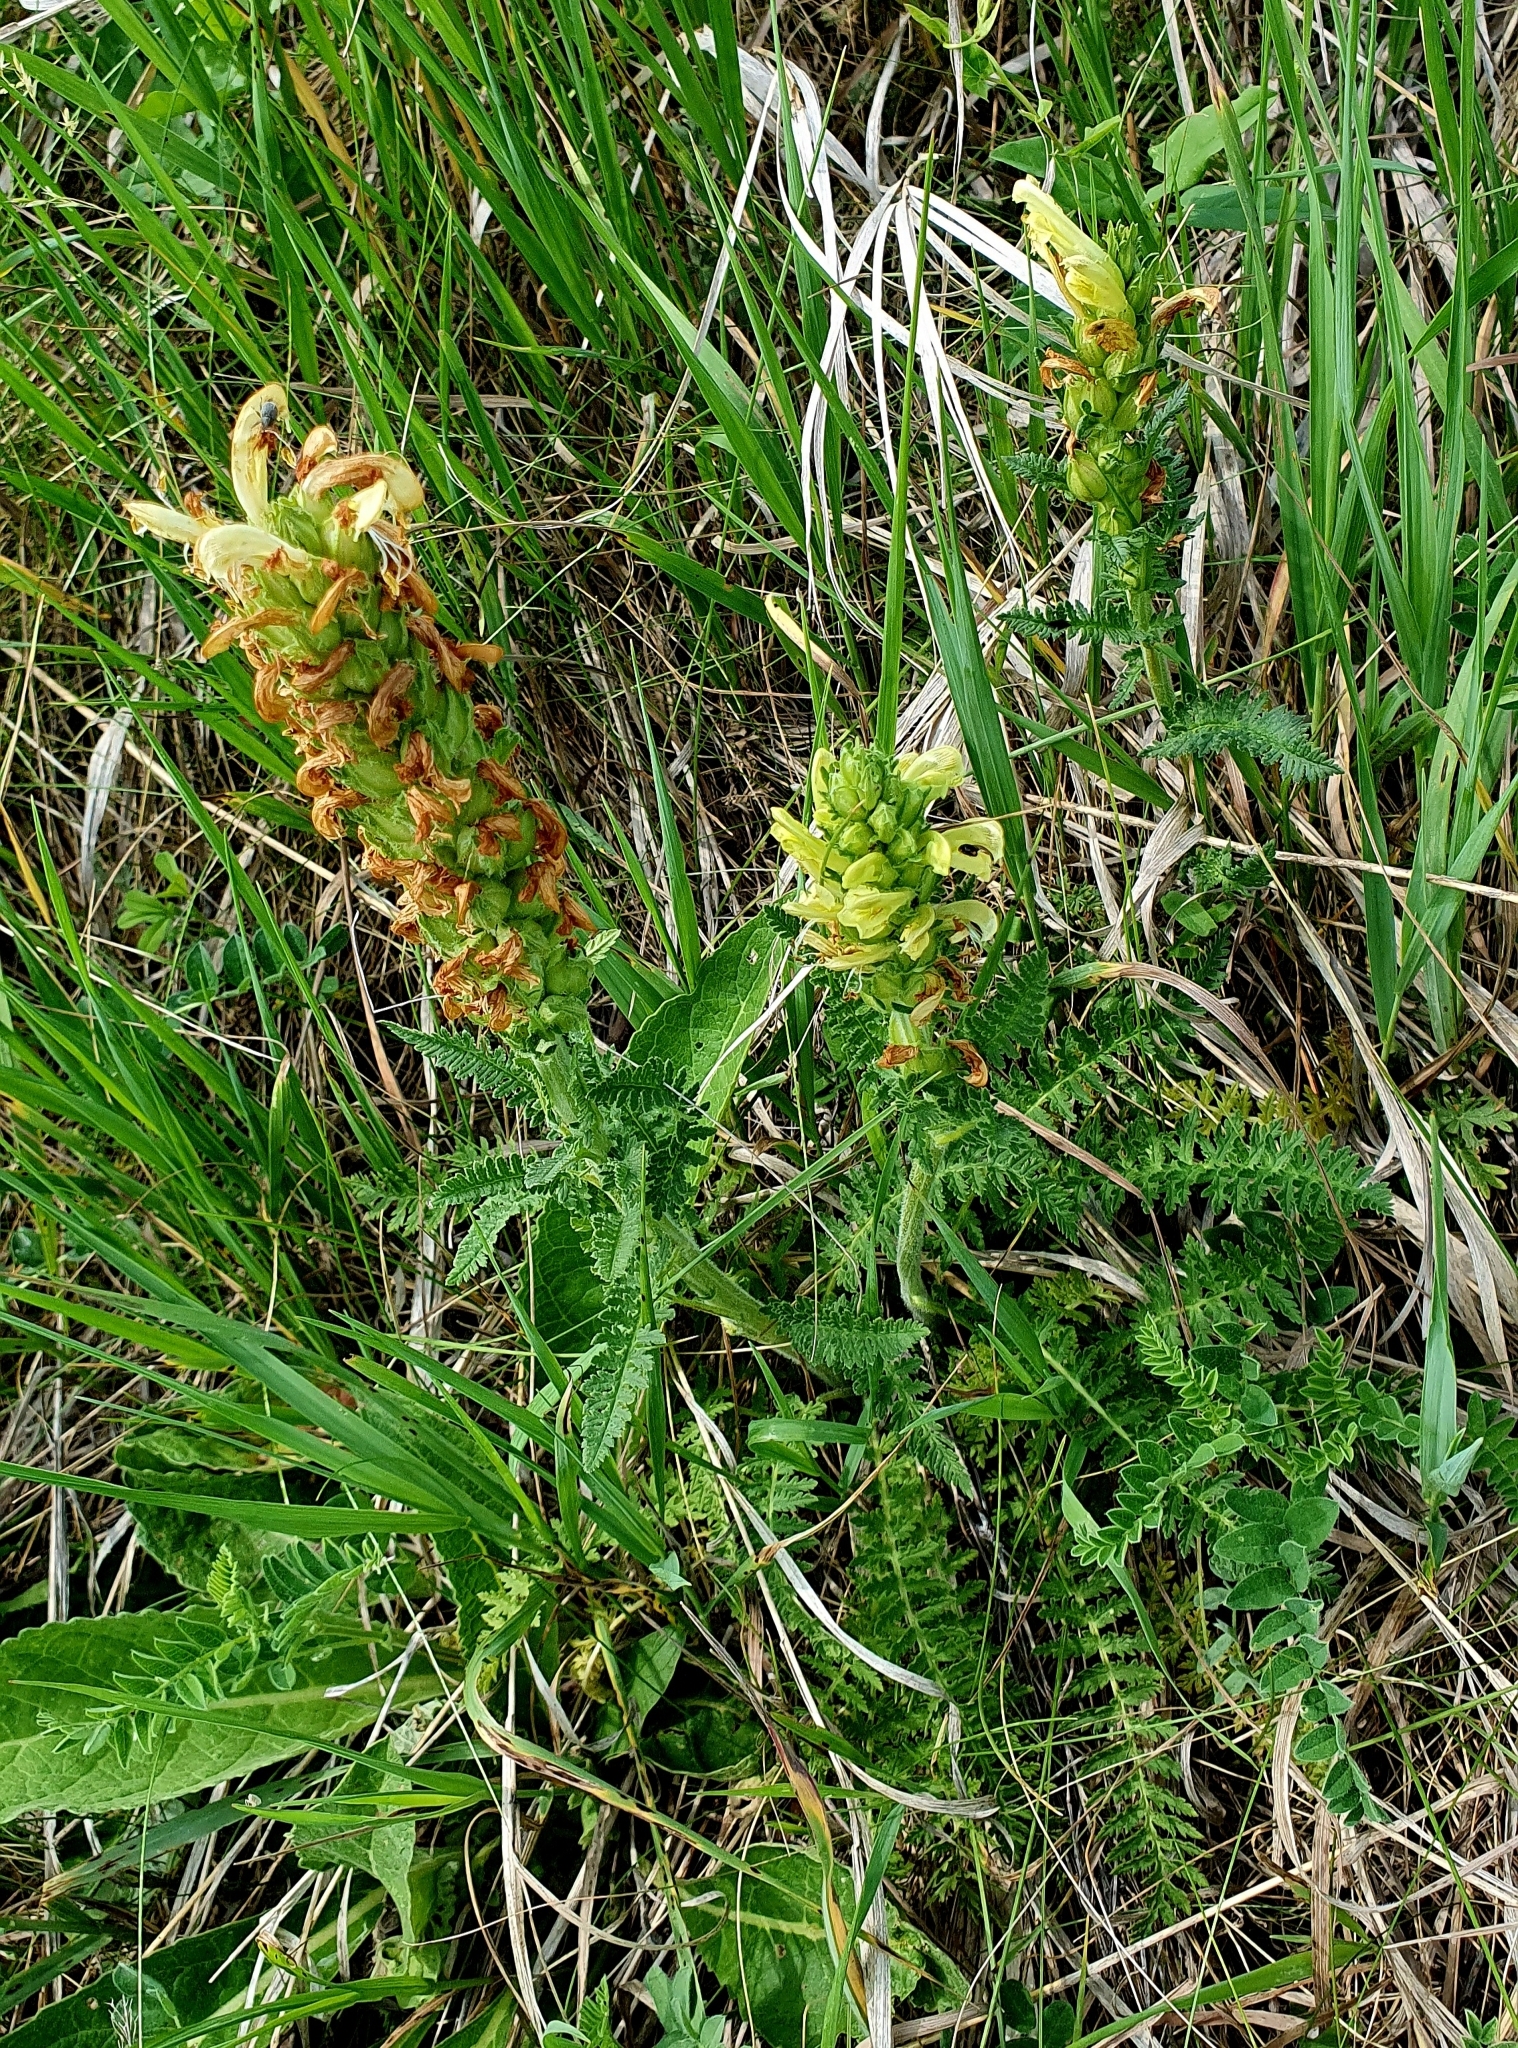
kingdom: Plantae
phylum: Tracheophyta
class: Magnoliopsida
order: Lamiales
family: Orobanchaceae
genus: Pedicularis
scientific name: Pedicularis kaufmannii
